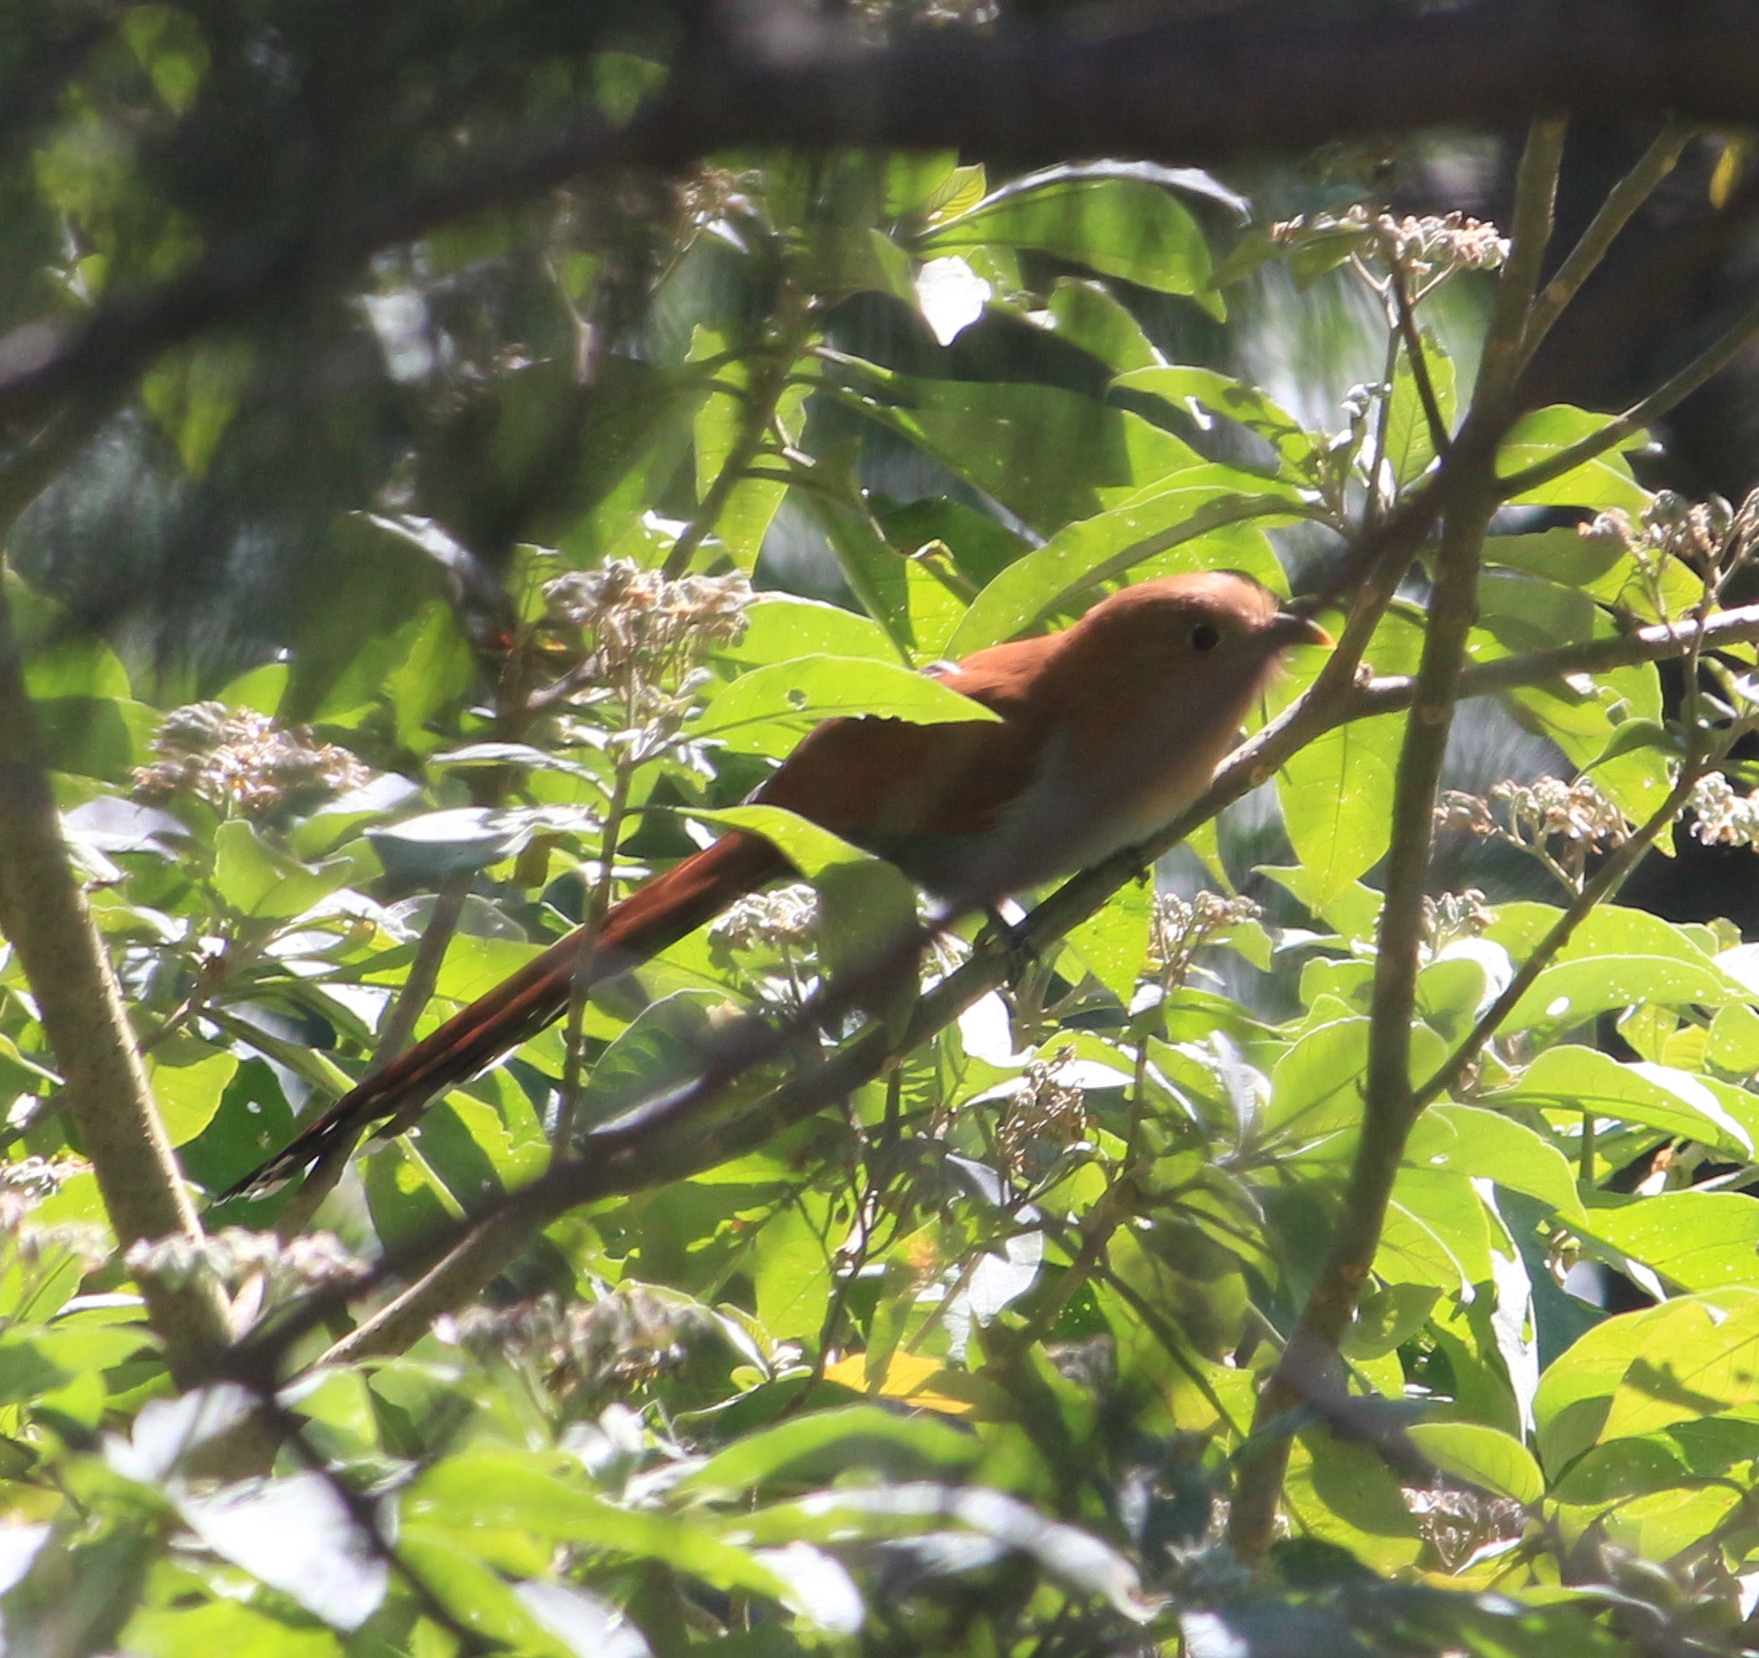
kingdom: Animalia
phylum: Chordata
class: Aves
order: Cuculiformes
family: Cuculidae
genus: Piaya
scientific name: Piaya cayana
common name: Squirrel cuckoo
